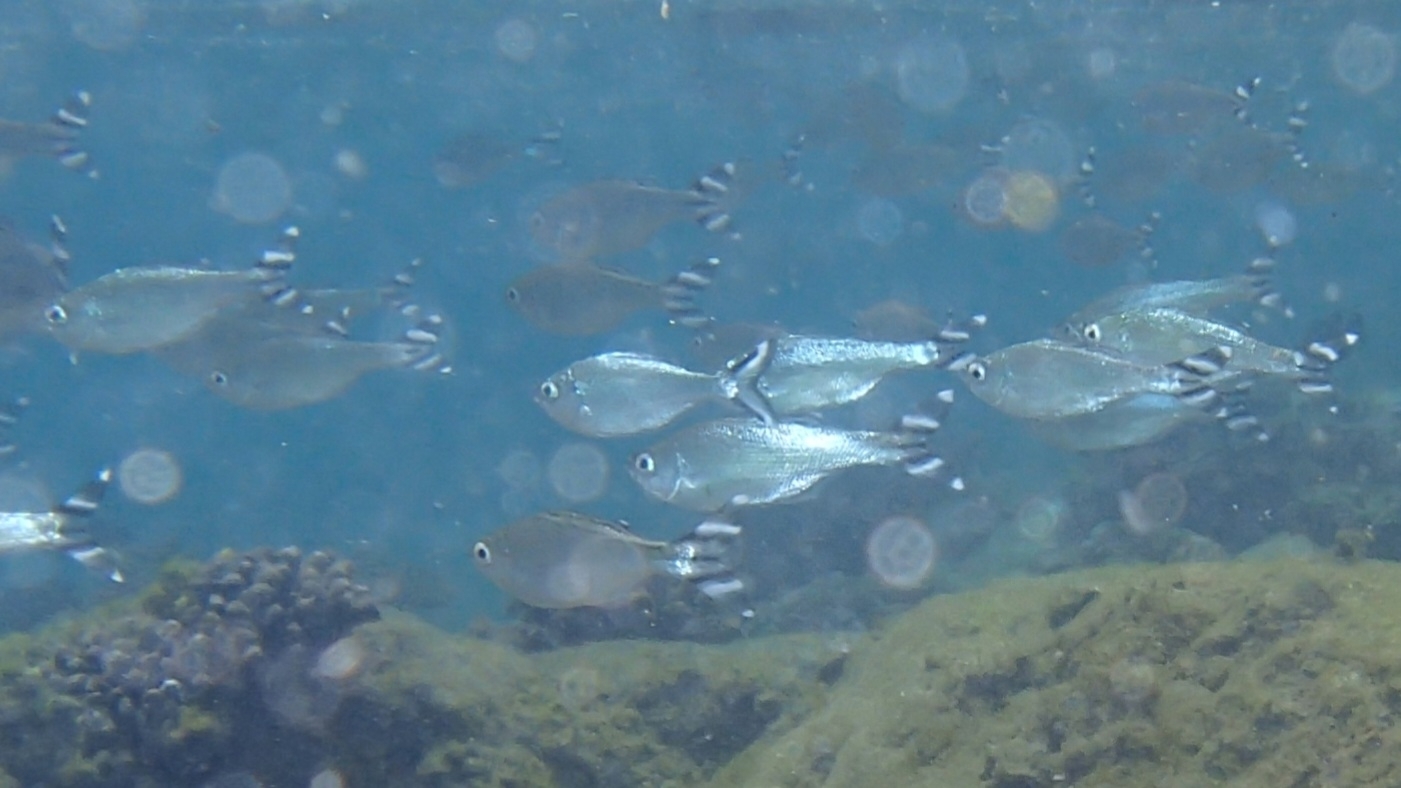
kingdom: Animalia
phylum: Chordata
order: Perciformes
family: Kuhliidae
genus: Kuhlia
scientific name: Kuhlia caudavittata
